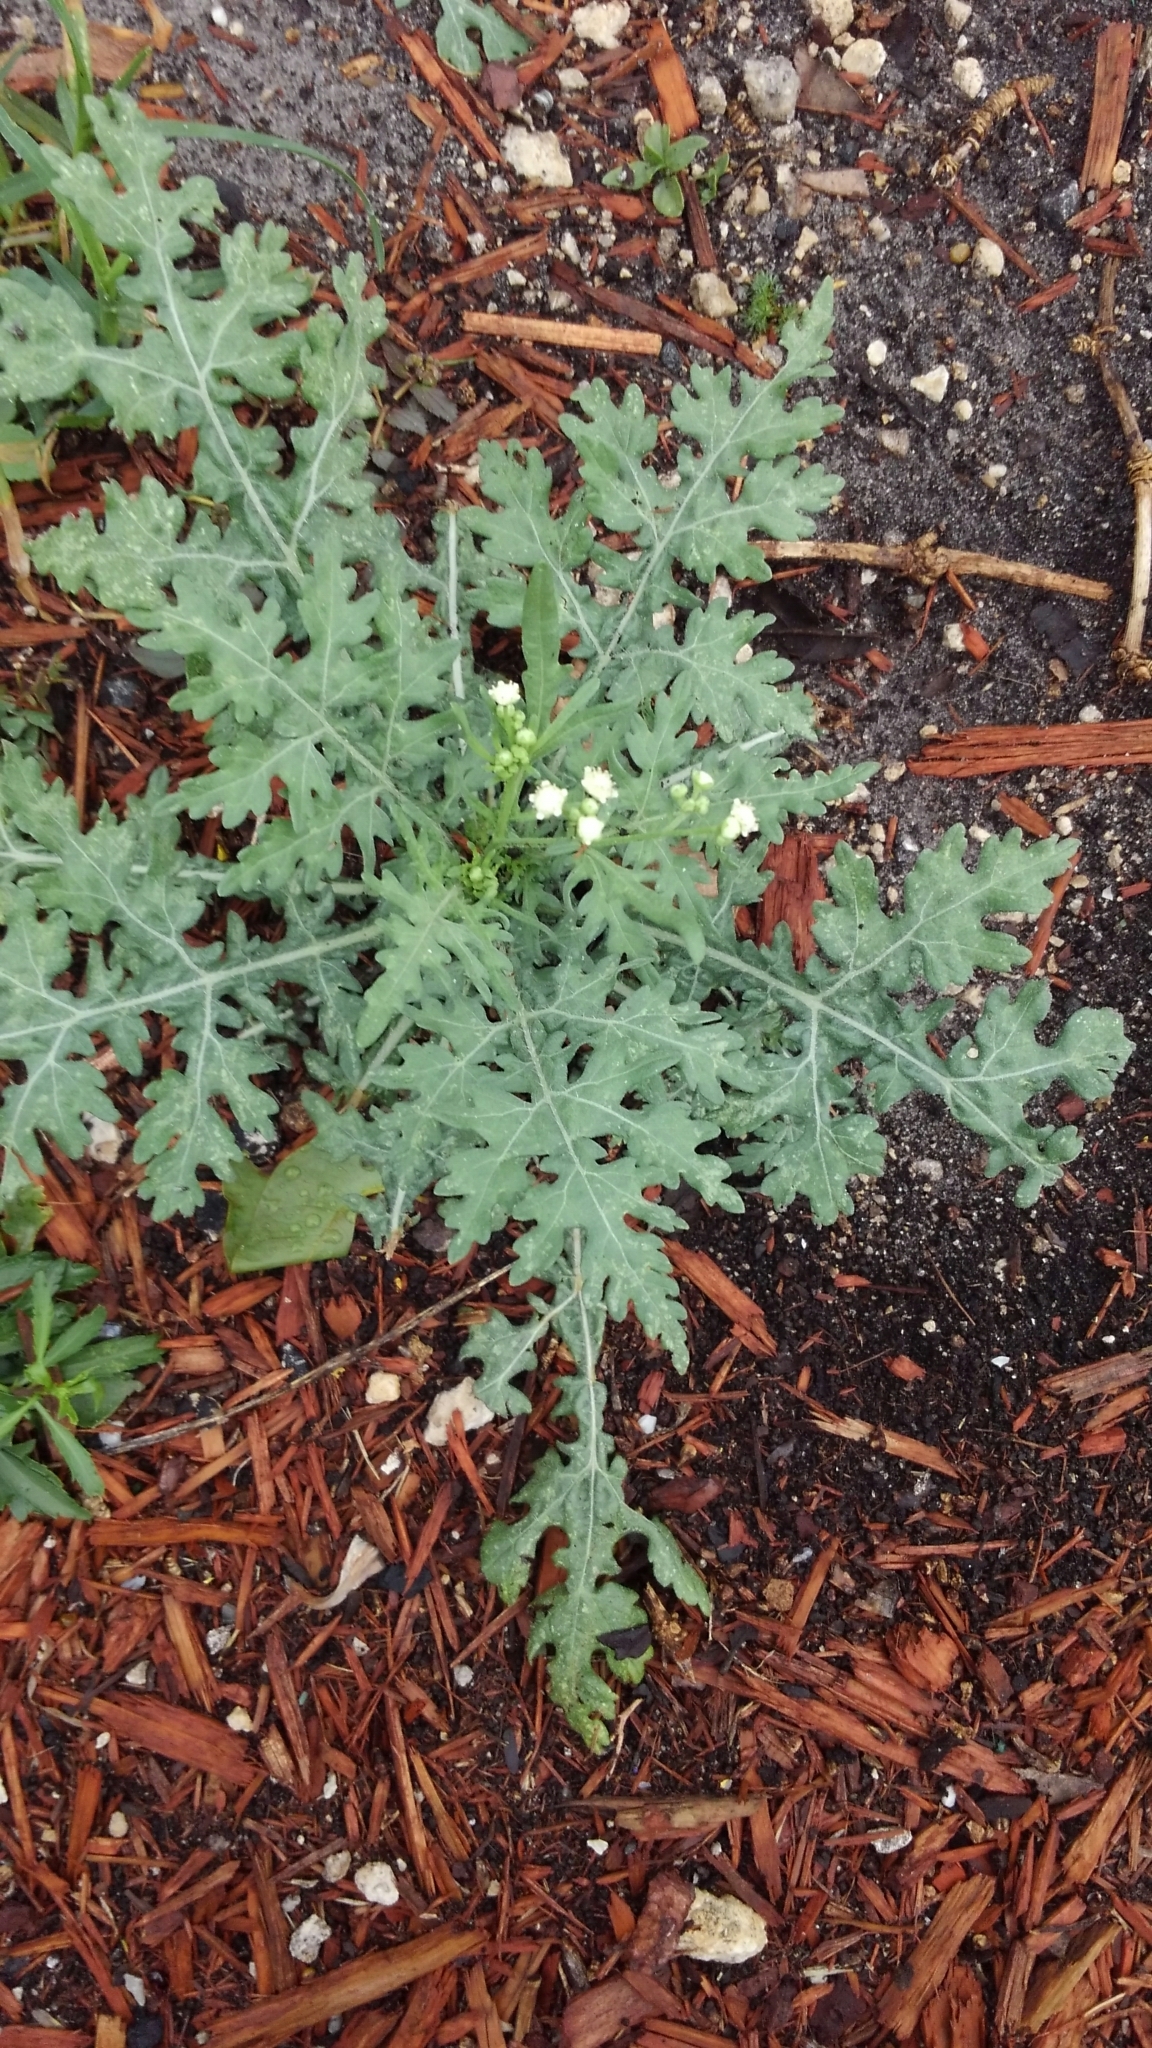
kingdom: Plantae
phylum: Tracheophyta
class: Magnoliopsida
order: Asterales
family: Asteraceae
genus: Parthenium
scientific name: Parthenium hysterophorus
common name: Santa maria feverfew
